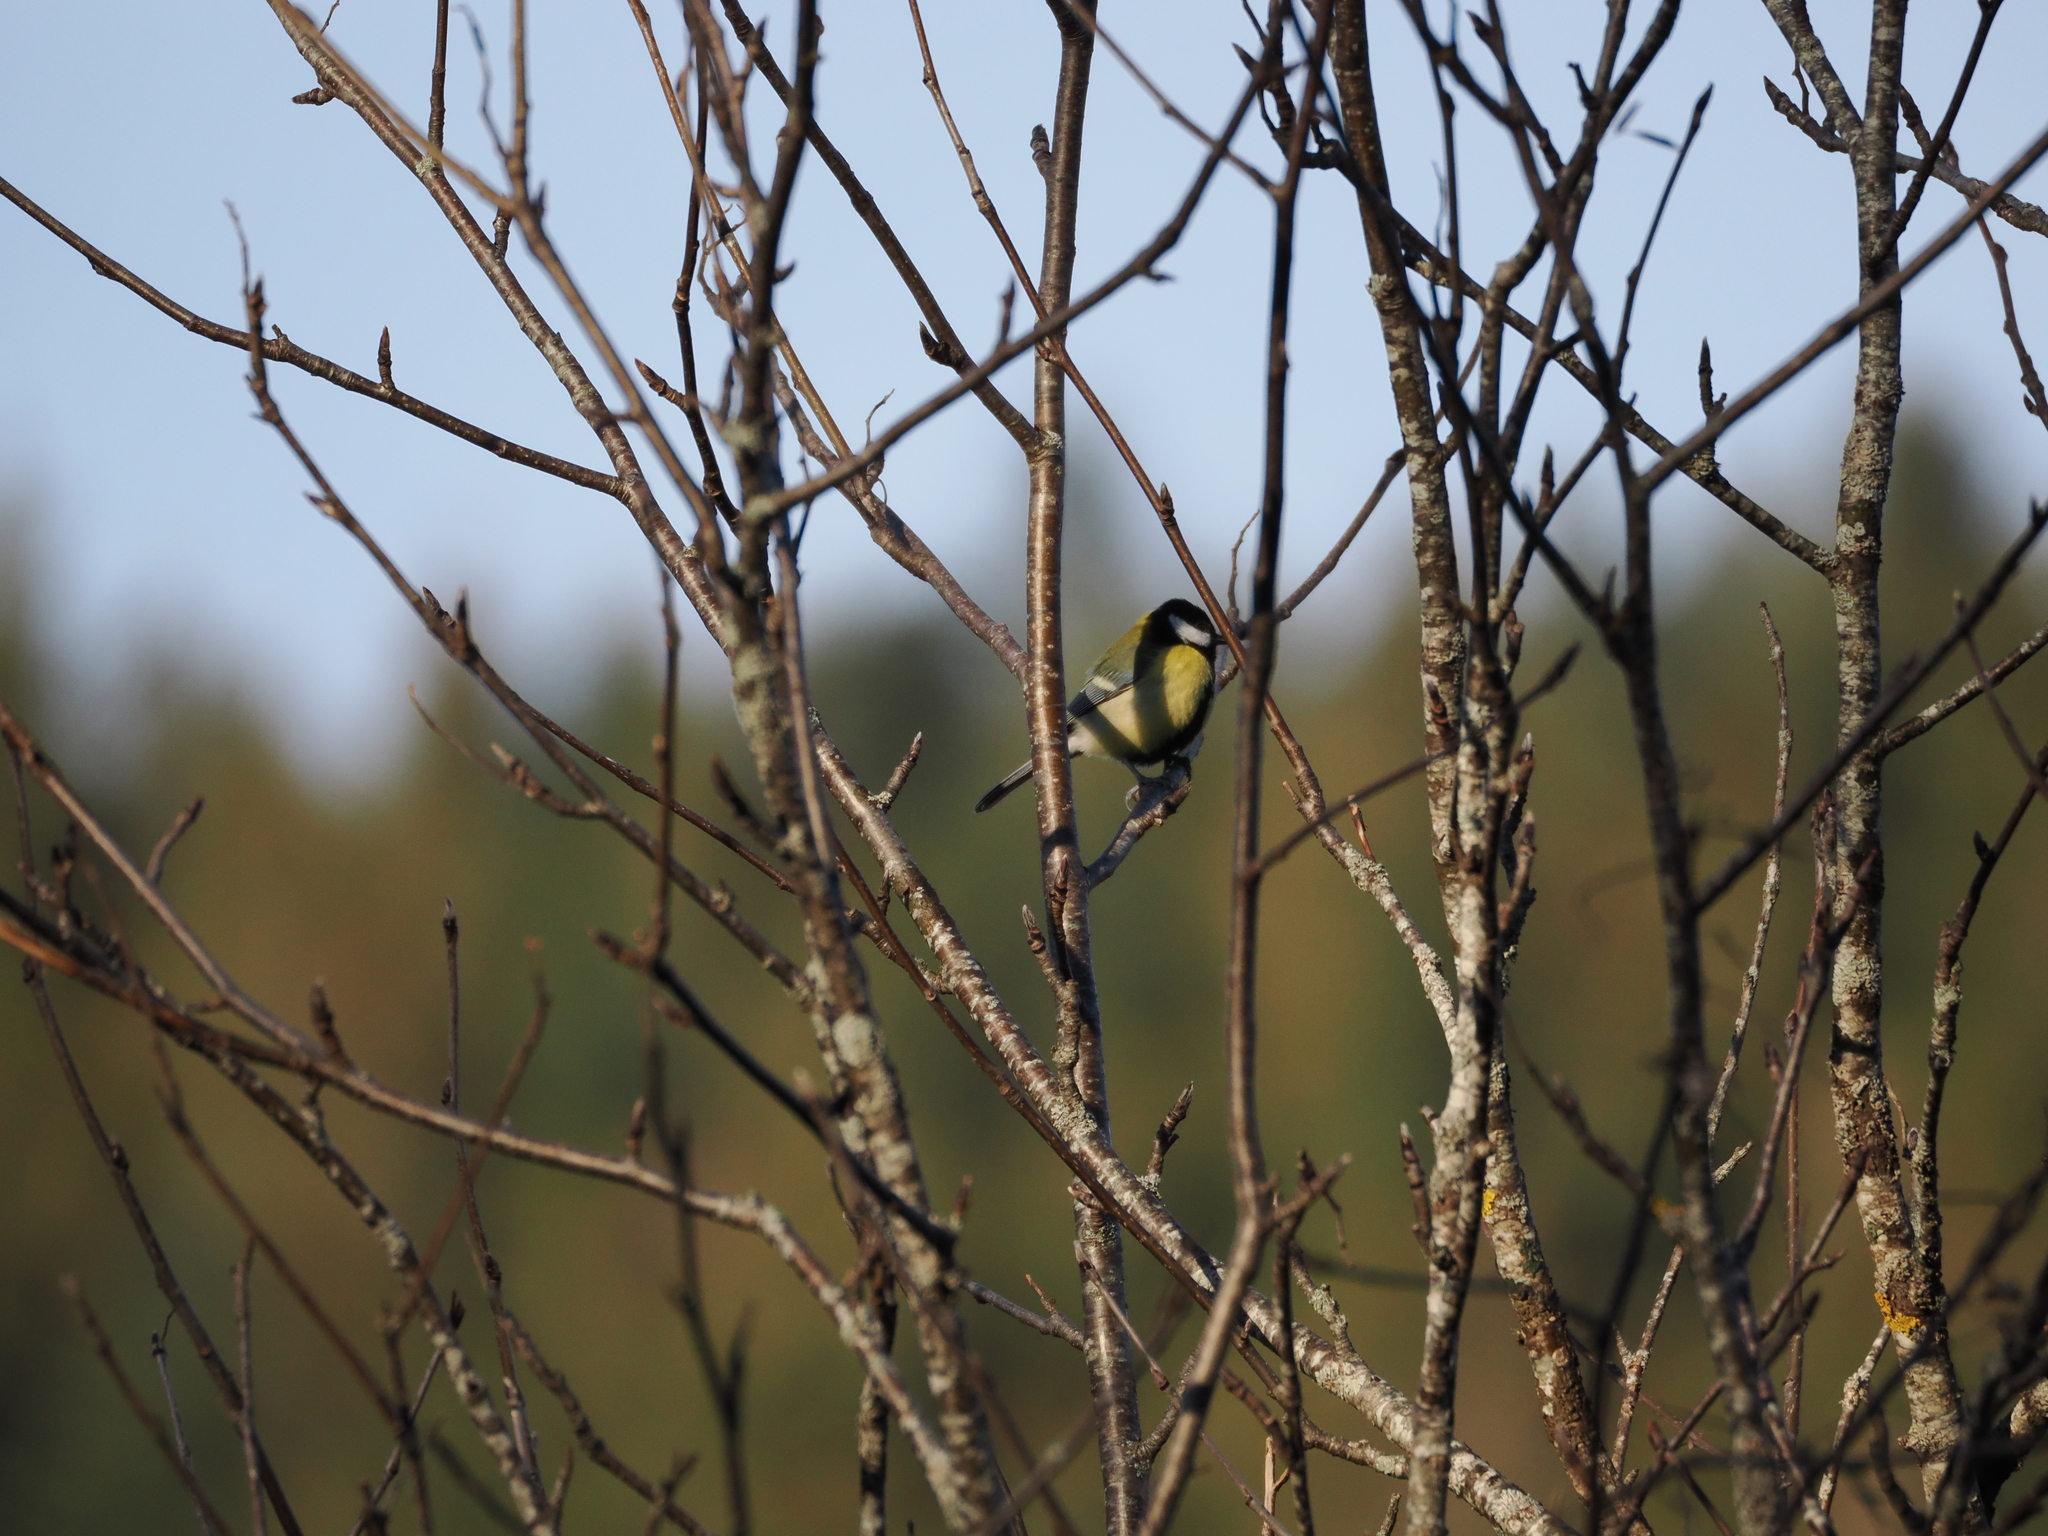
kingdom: Animalia
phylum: Chordata
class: Aves
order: Passeriformes
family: Paridae
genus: Parus
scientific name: Parus major
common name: Great tit
